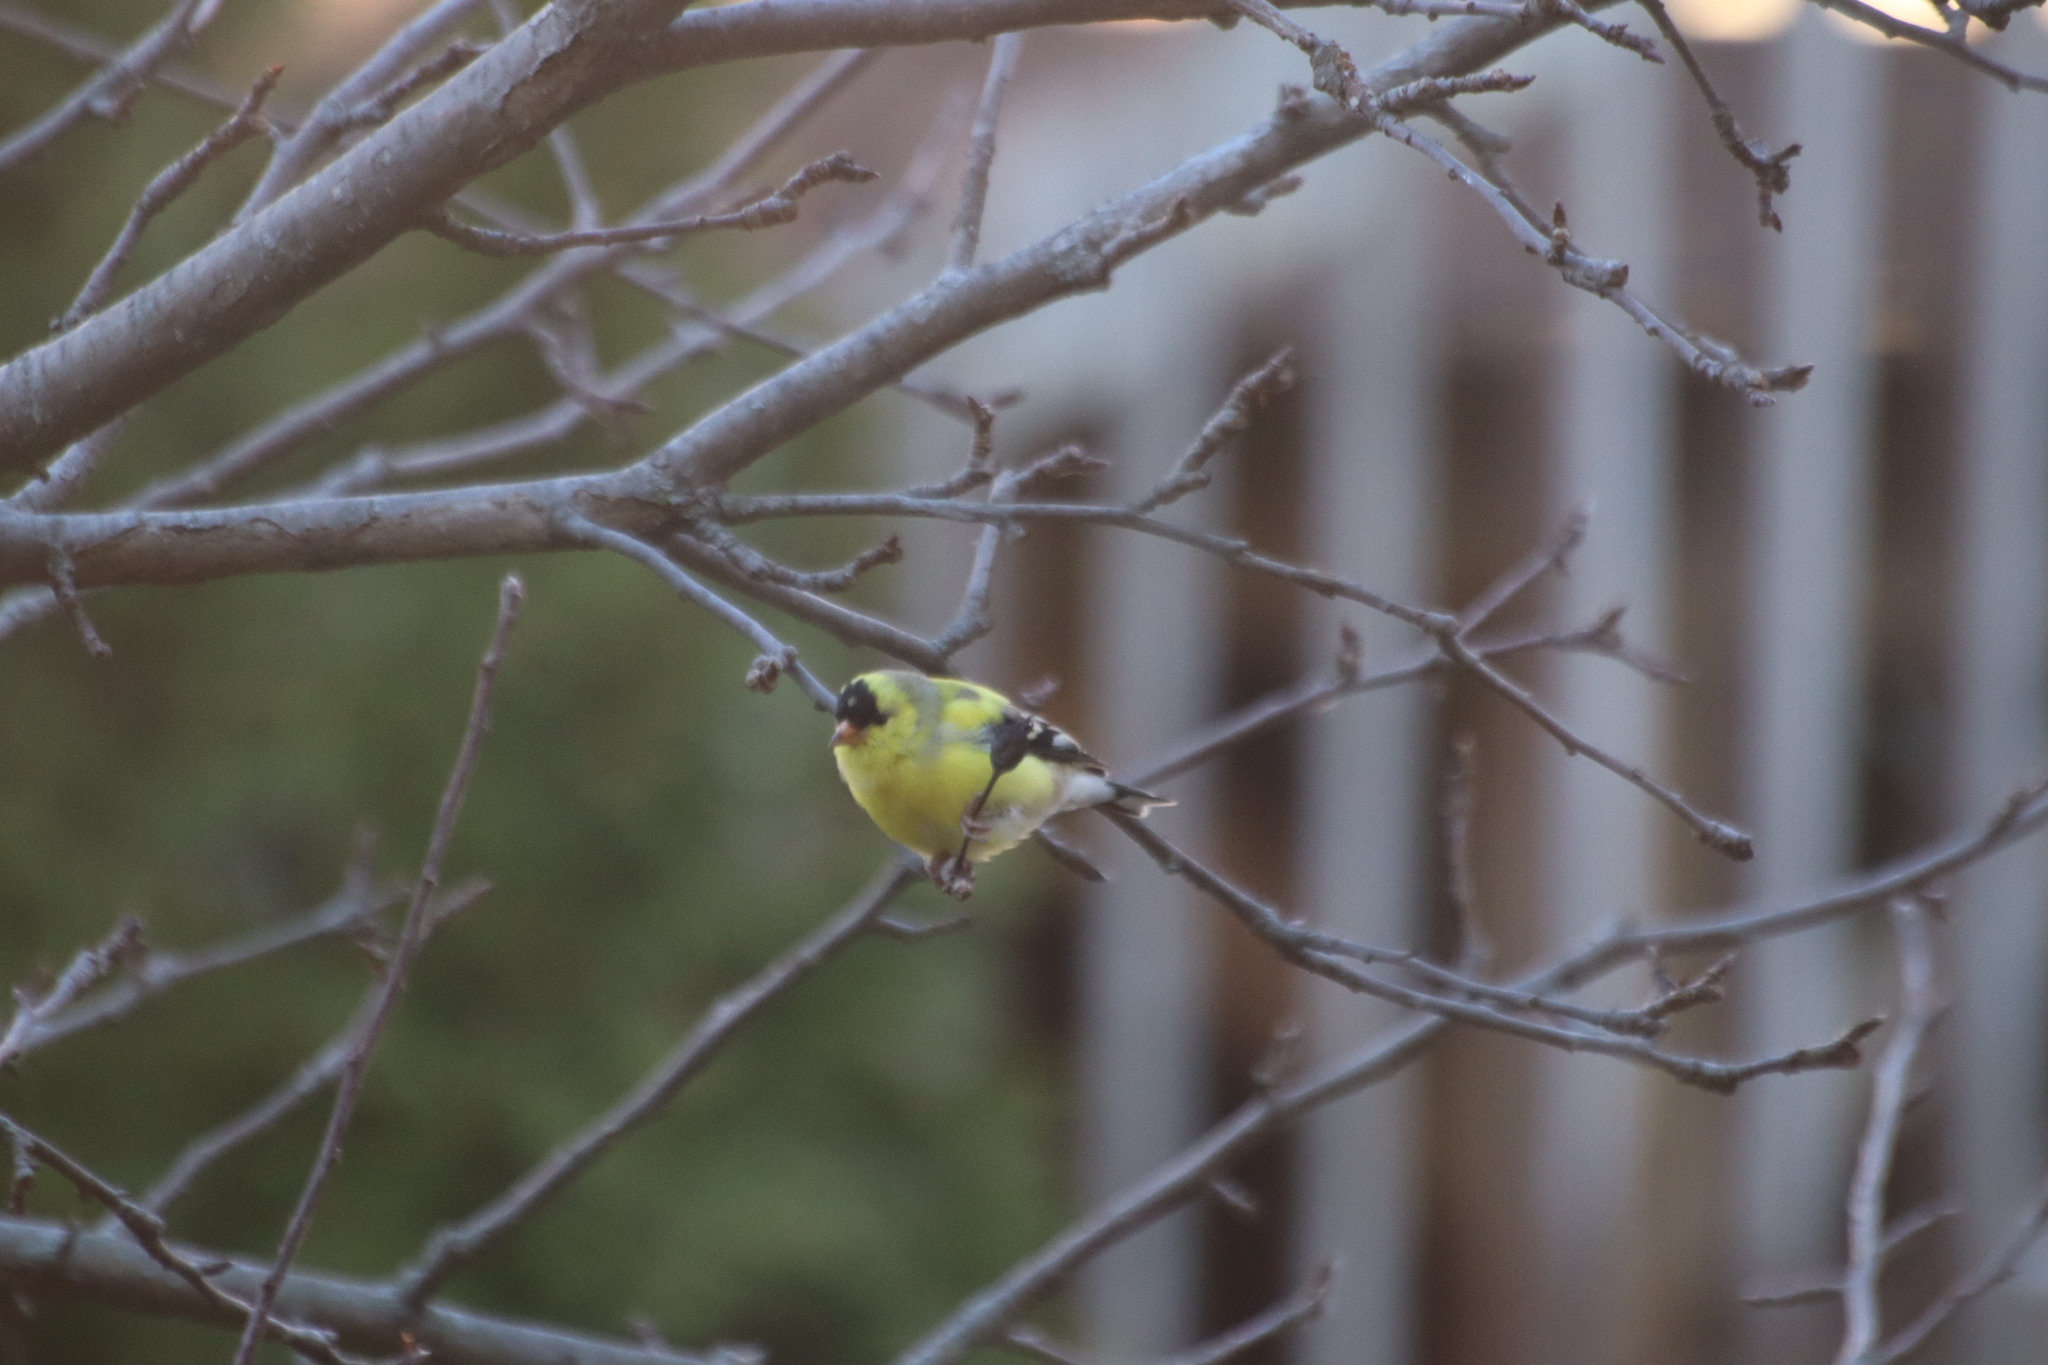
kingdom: Animalia
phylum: Chordata
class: Aves
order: Passeriformes
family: Fringillidae
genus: Spinus
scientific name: Spinus tristis
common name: American goldfinch
